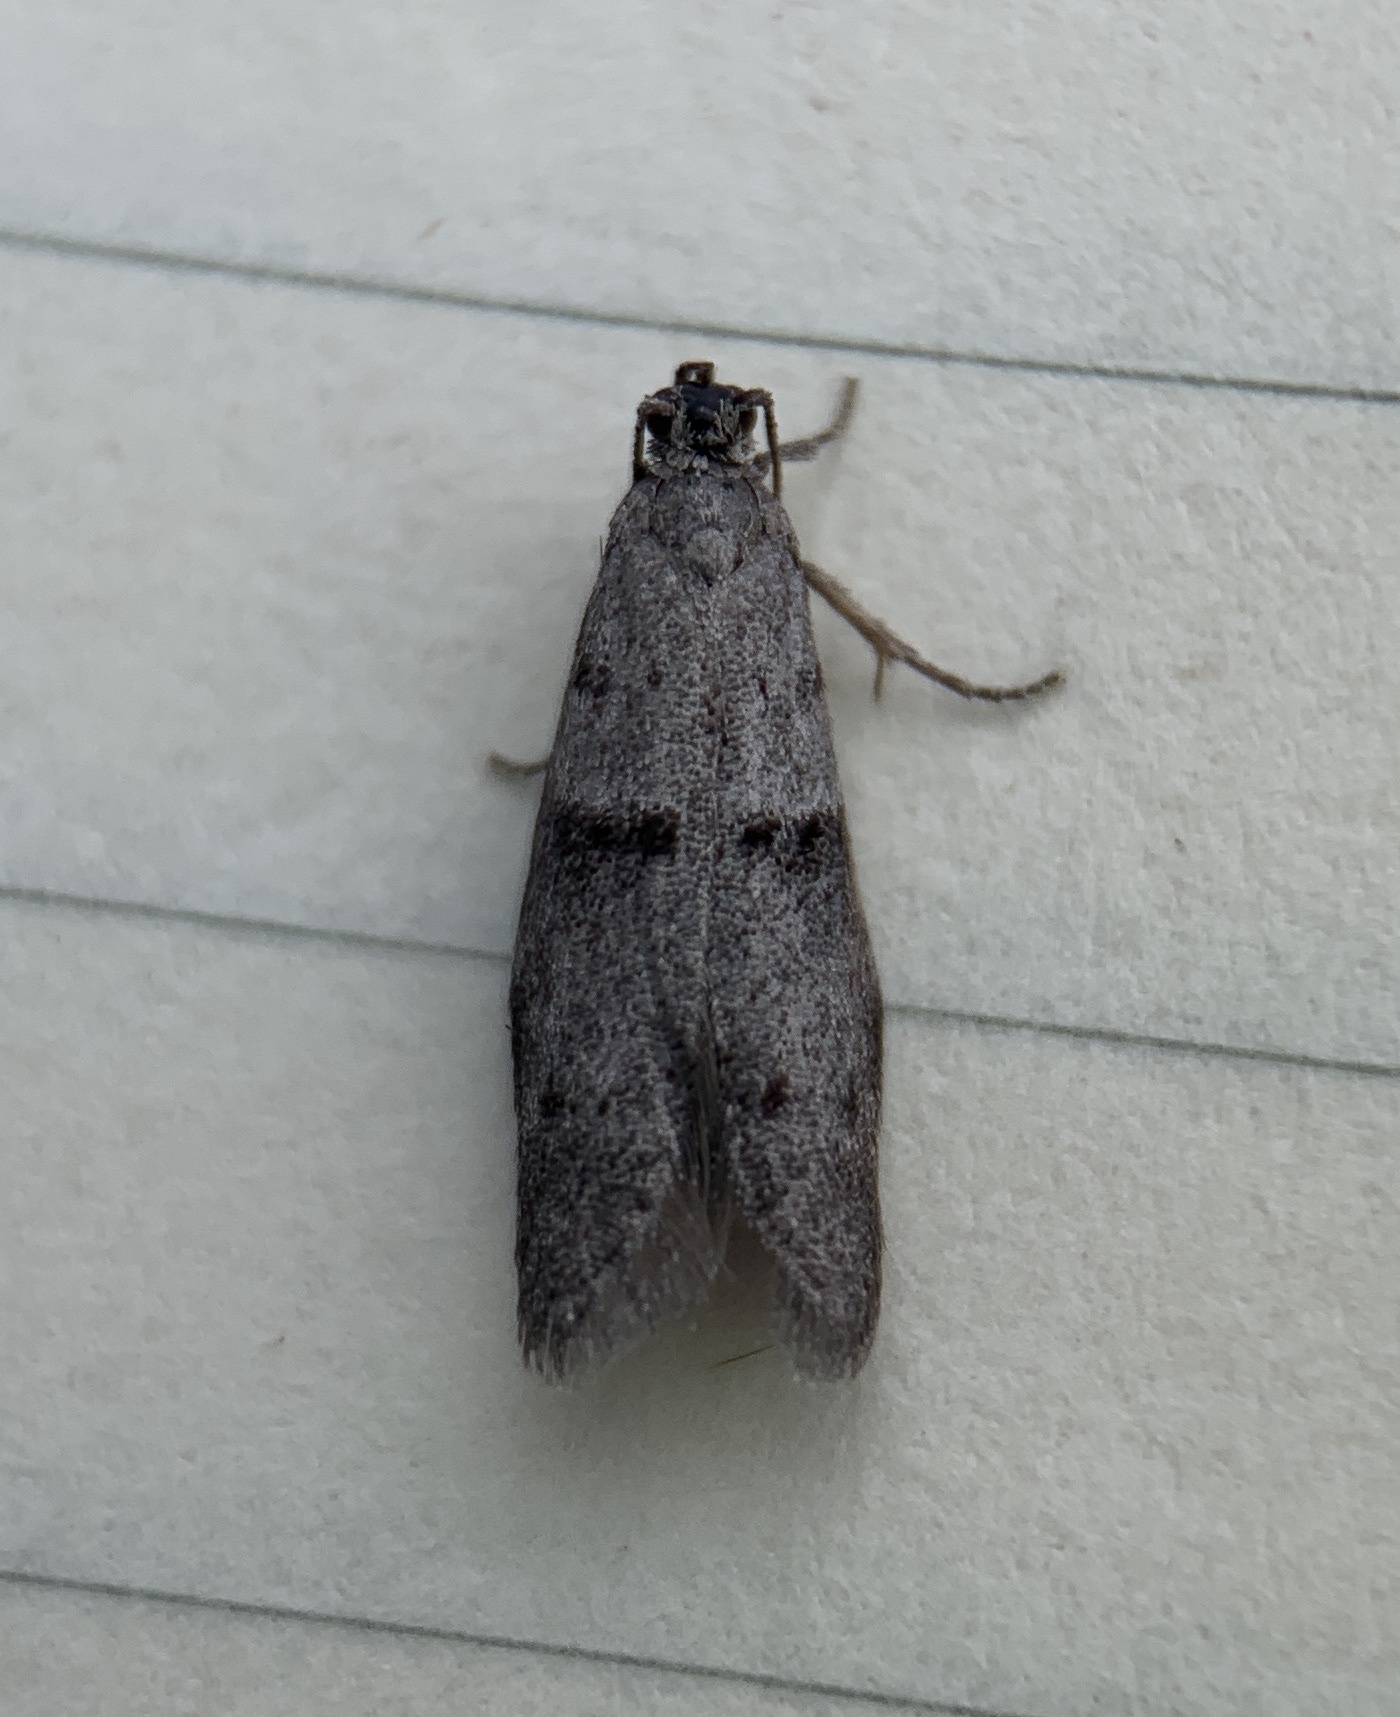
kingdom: Animalia
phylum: Arthropoda
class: Insecta
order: Lepidoptera
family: Urodidae
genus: Wockia
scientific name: Wockia asperipunctella
